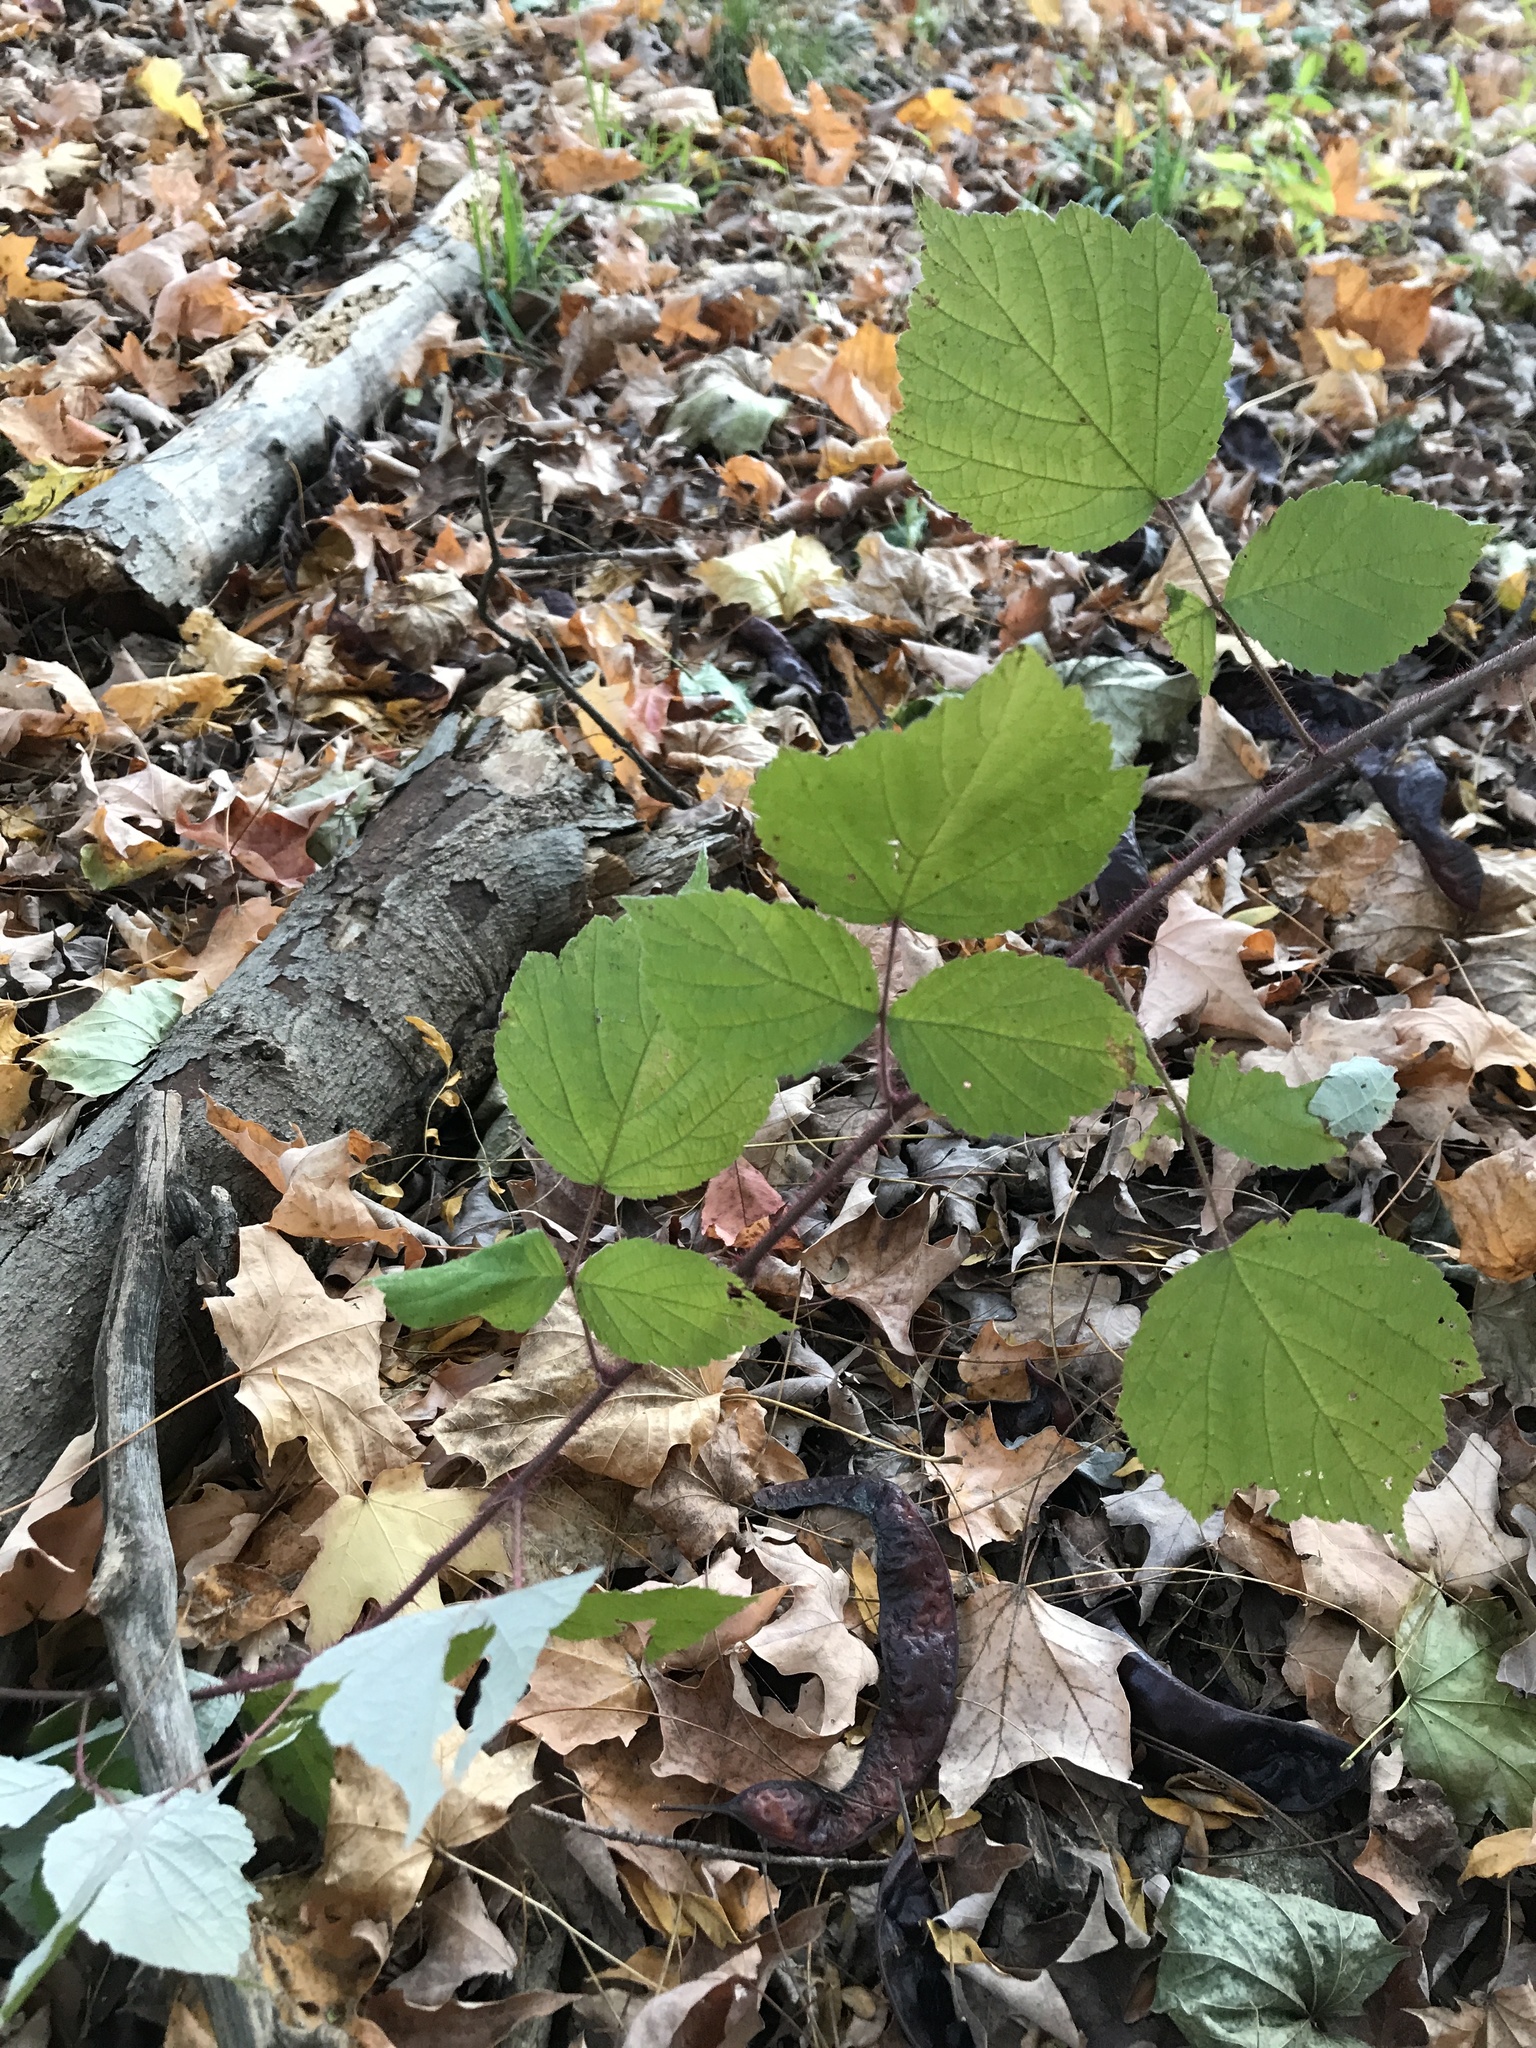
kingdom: Plantae
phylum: Tracheophyta
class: Magnoliopsida
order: Rosales
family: Rosaceae
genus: Rubus
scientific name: Rubus phoenicolasius
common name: Japanese wineberry
